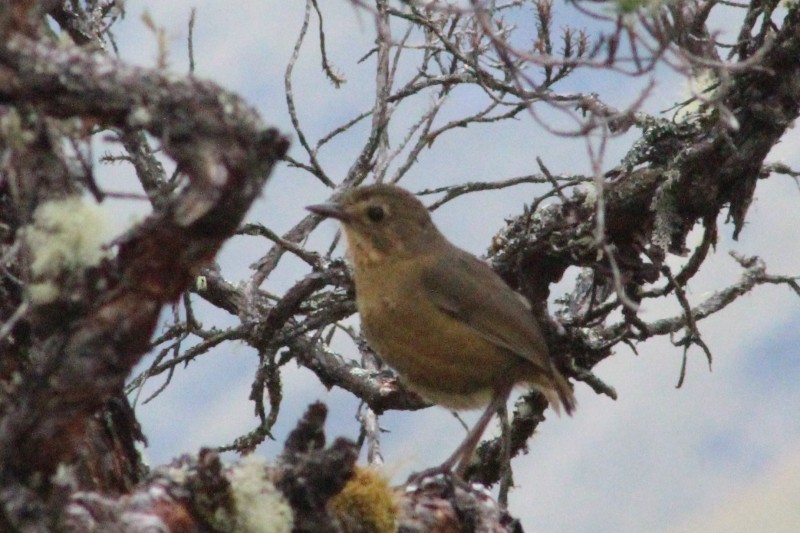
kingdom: Animalia
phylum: Chordata
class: Aves
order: Passeriformes
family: Grallariidae
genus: Grallaria
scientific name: Grallaria quitensis
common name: Tawny antpitta
